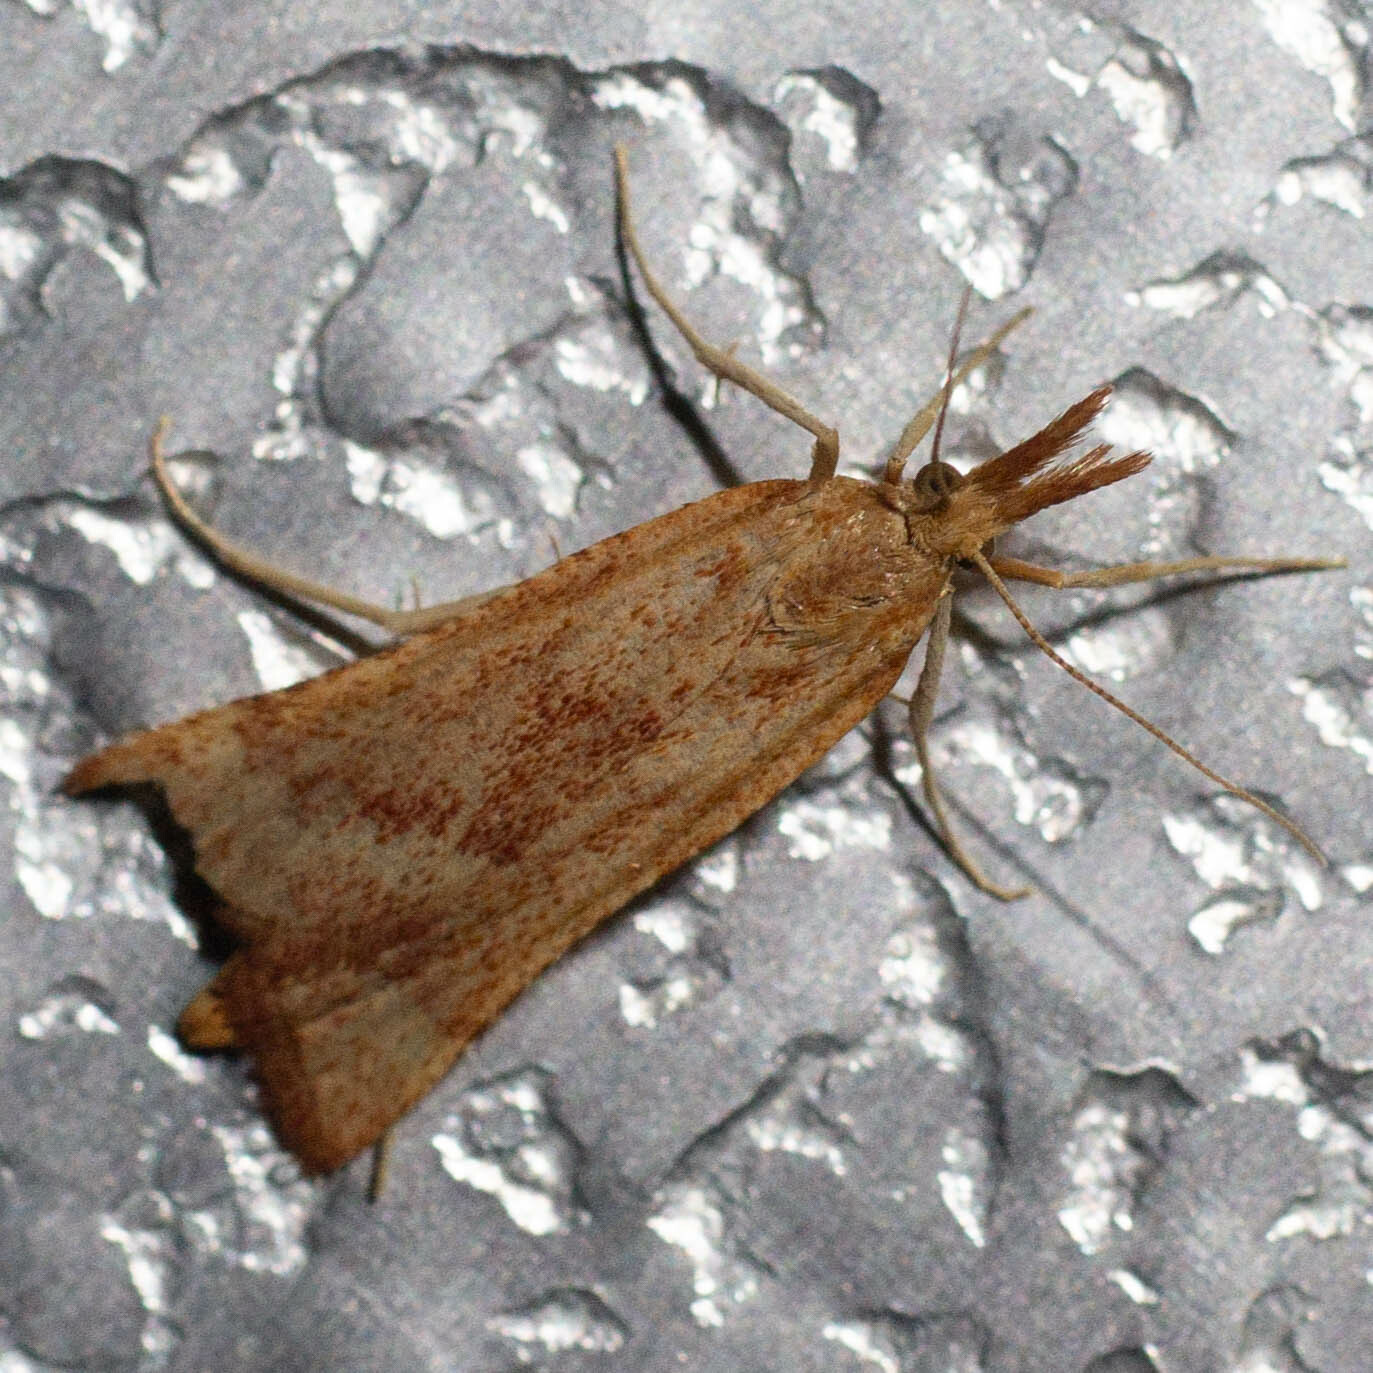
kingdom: Animalia
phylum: Arthropoda
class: Insecta
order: Lepidoptera
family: Pyralidae
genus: Synaphe
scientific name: Synaphe punctalis
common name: Long-legged tabby
